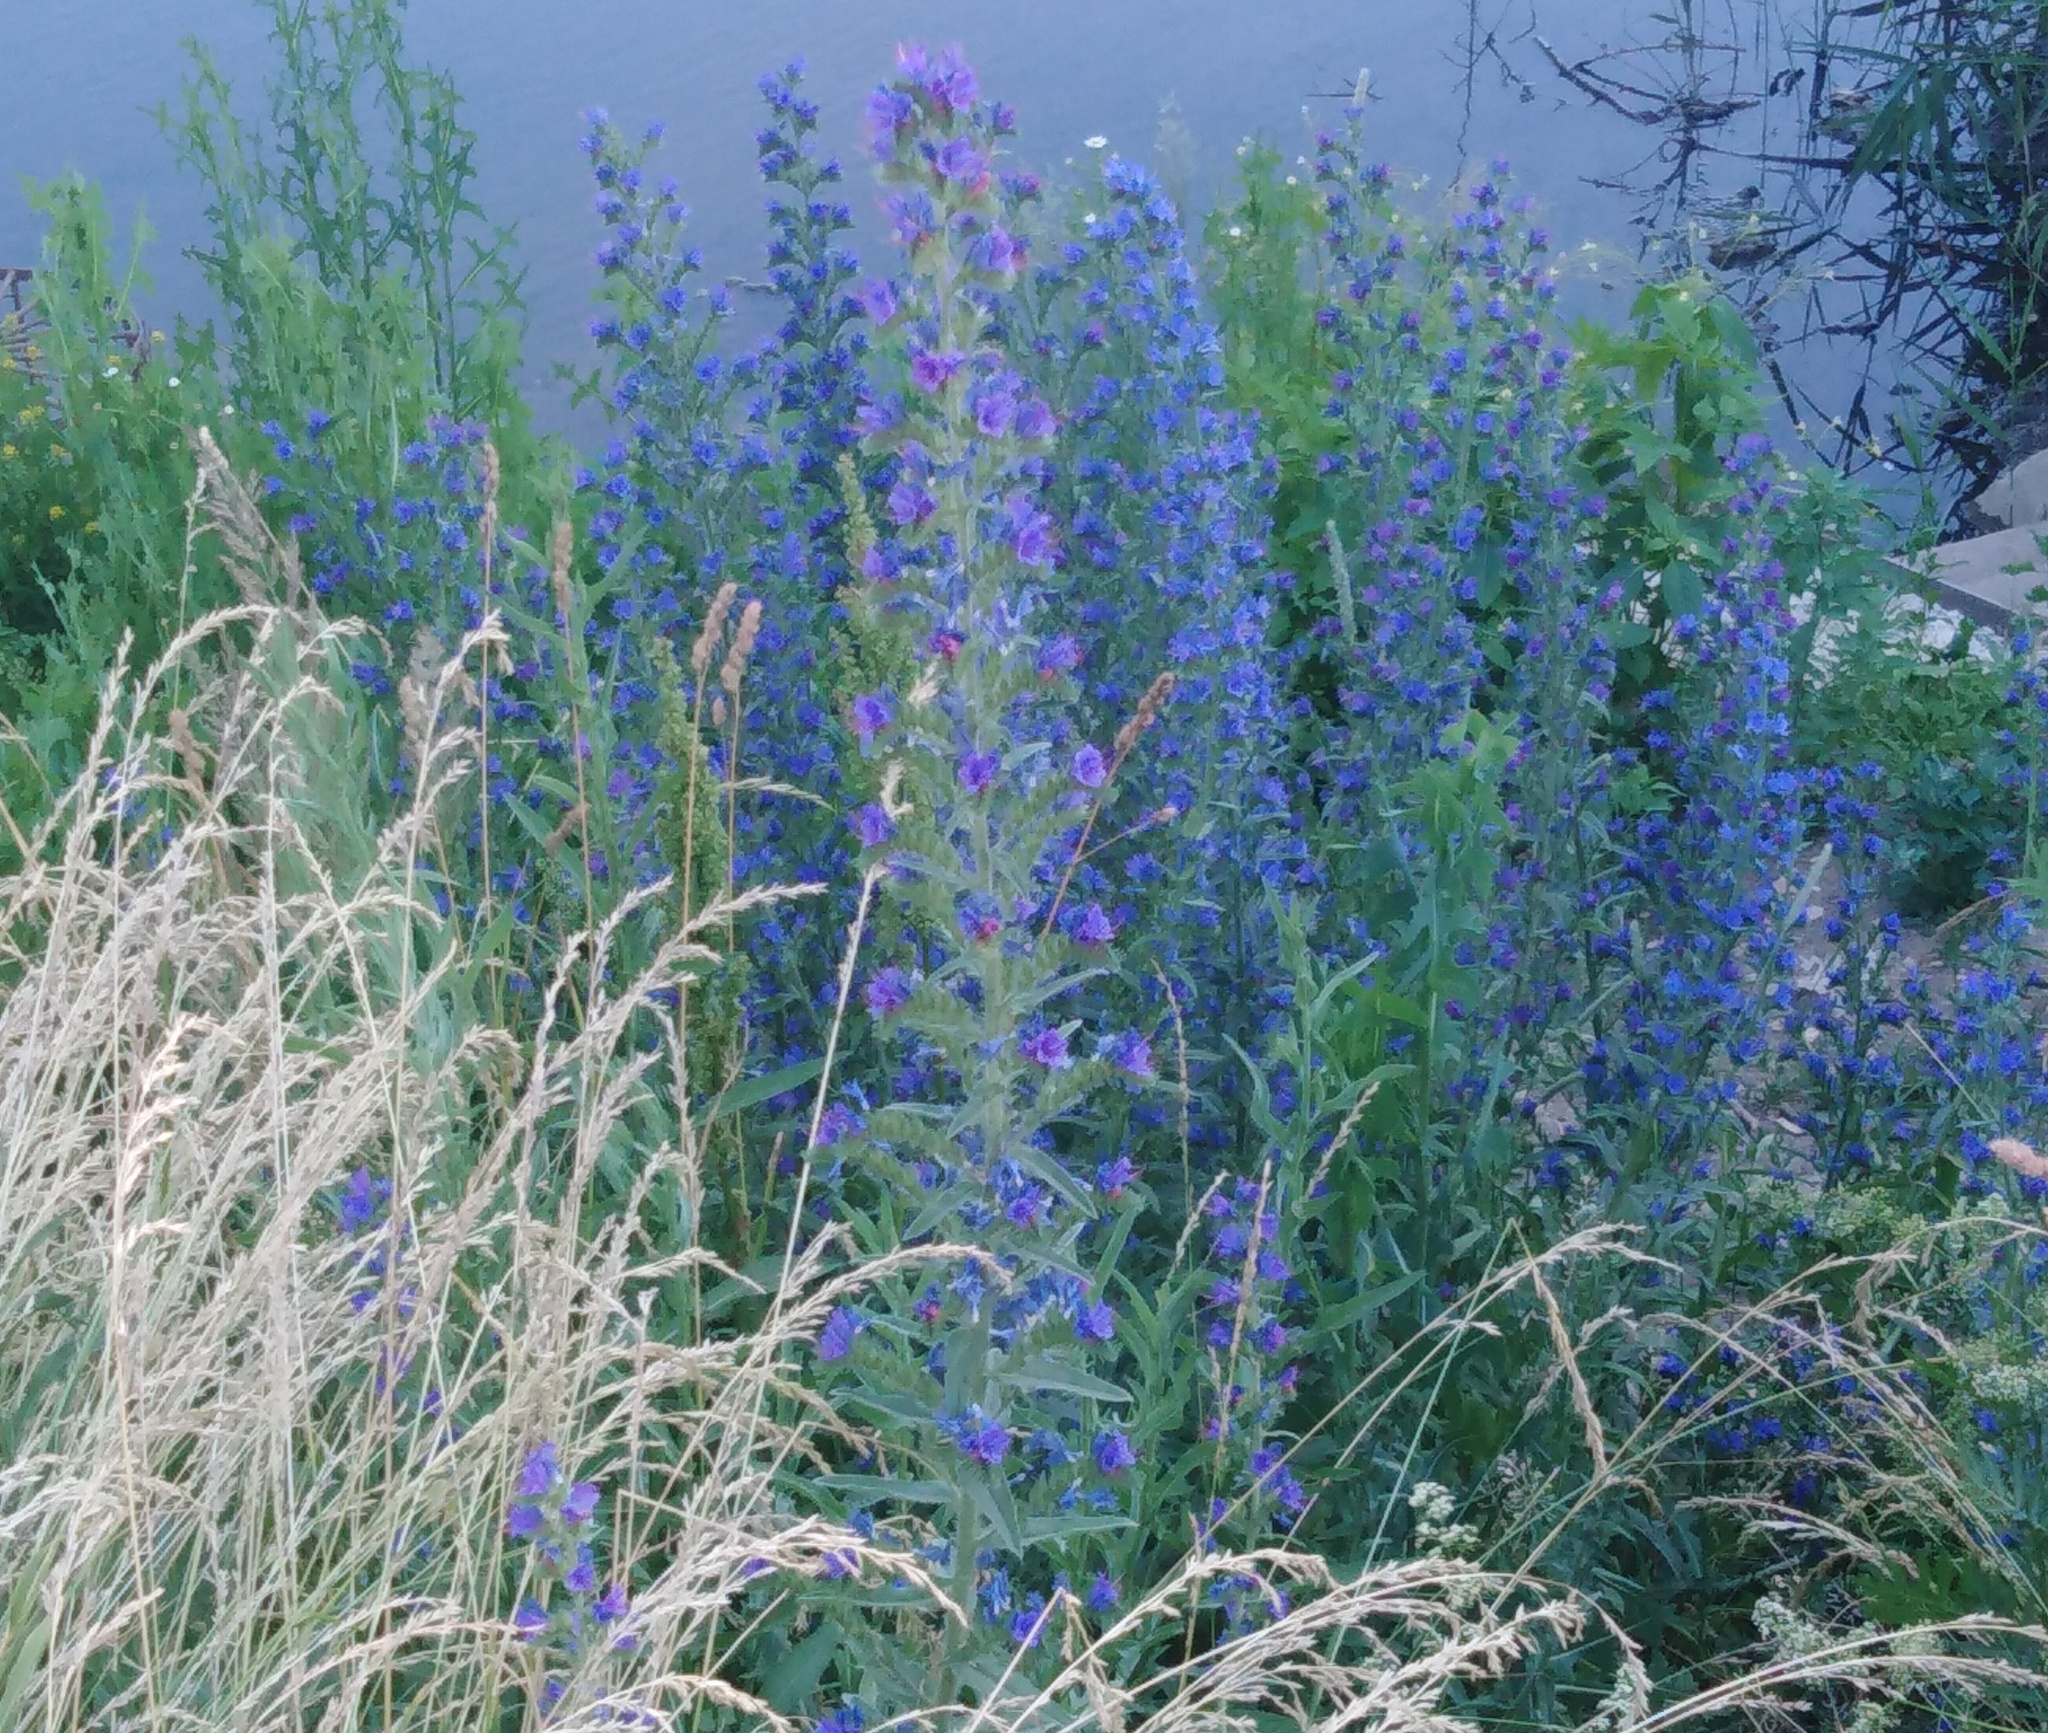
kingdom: Plantae
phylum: Tracheophyta
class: Magnoliopsida
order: Boraginales
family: Boraginaceae
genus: Echium
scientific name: Echium vulgare
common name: Common viper's bugloss
